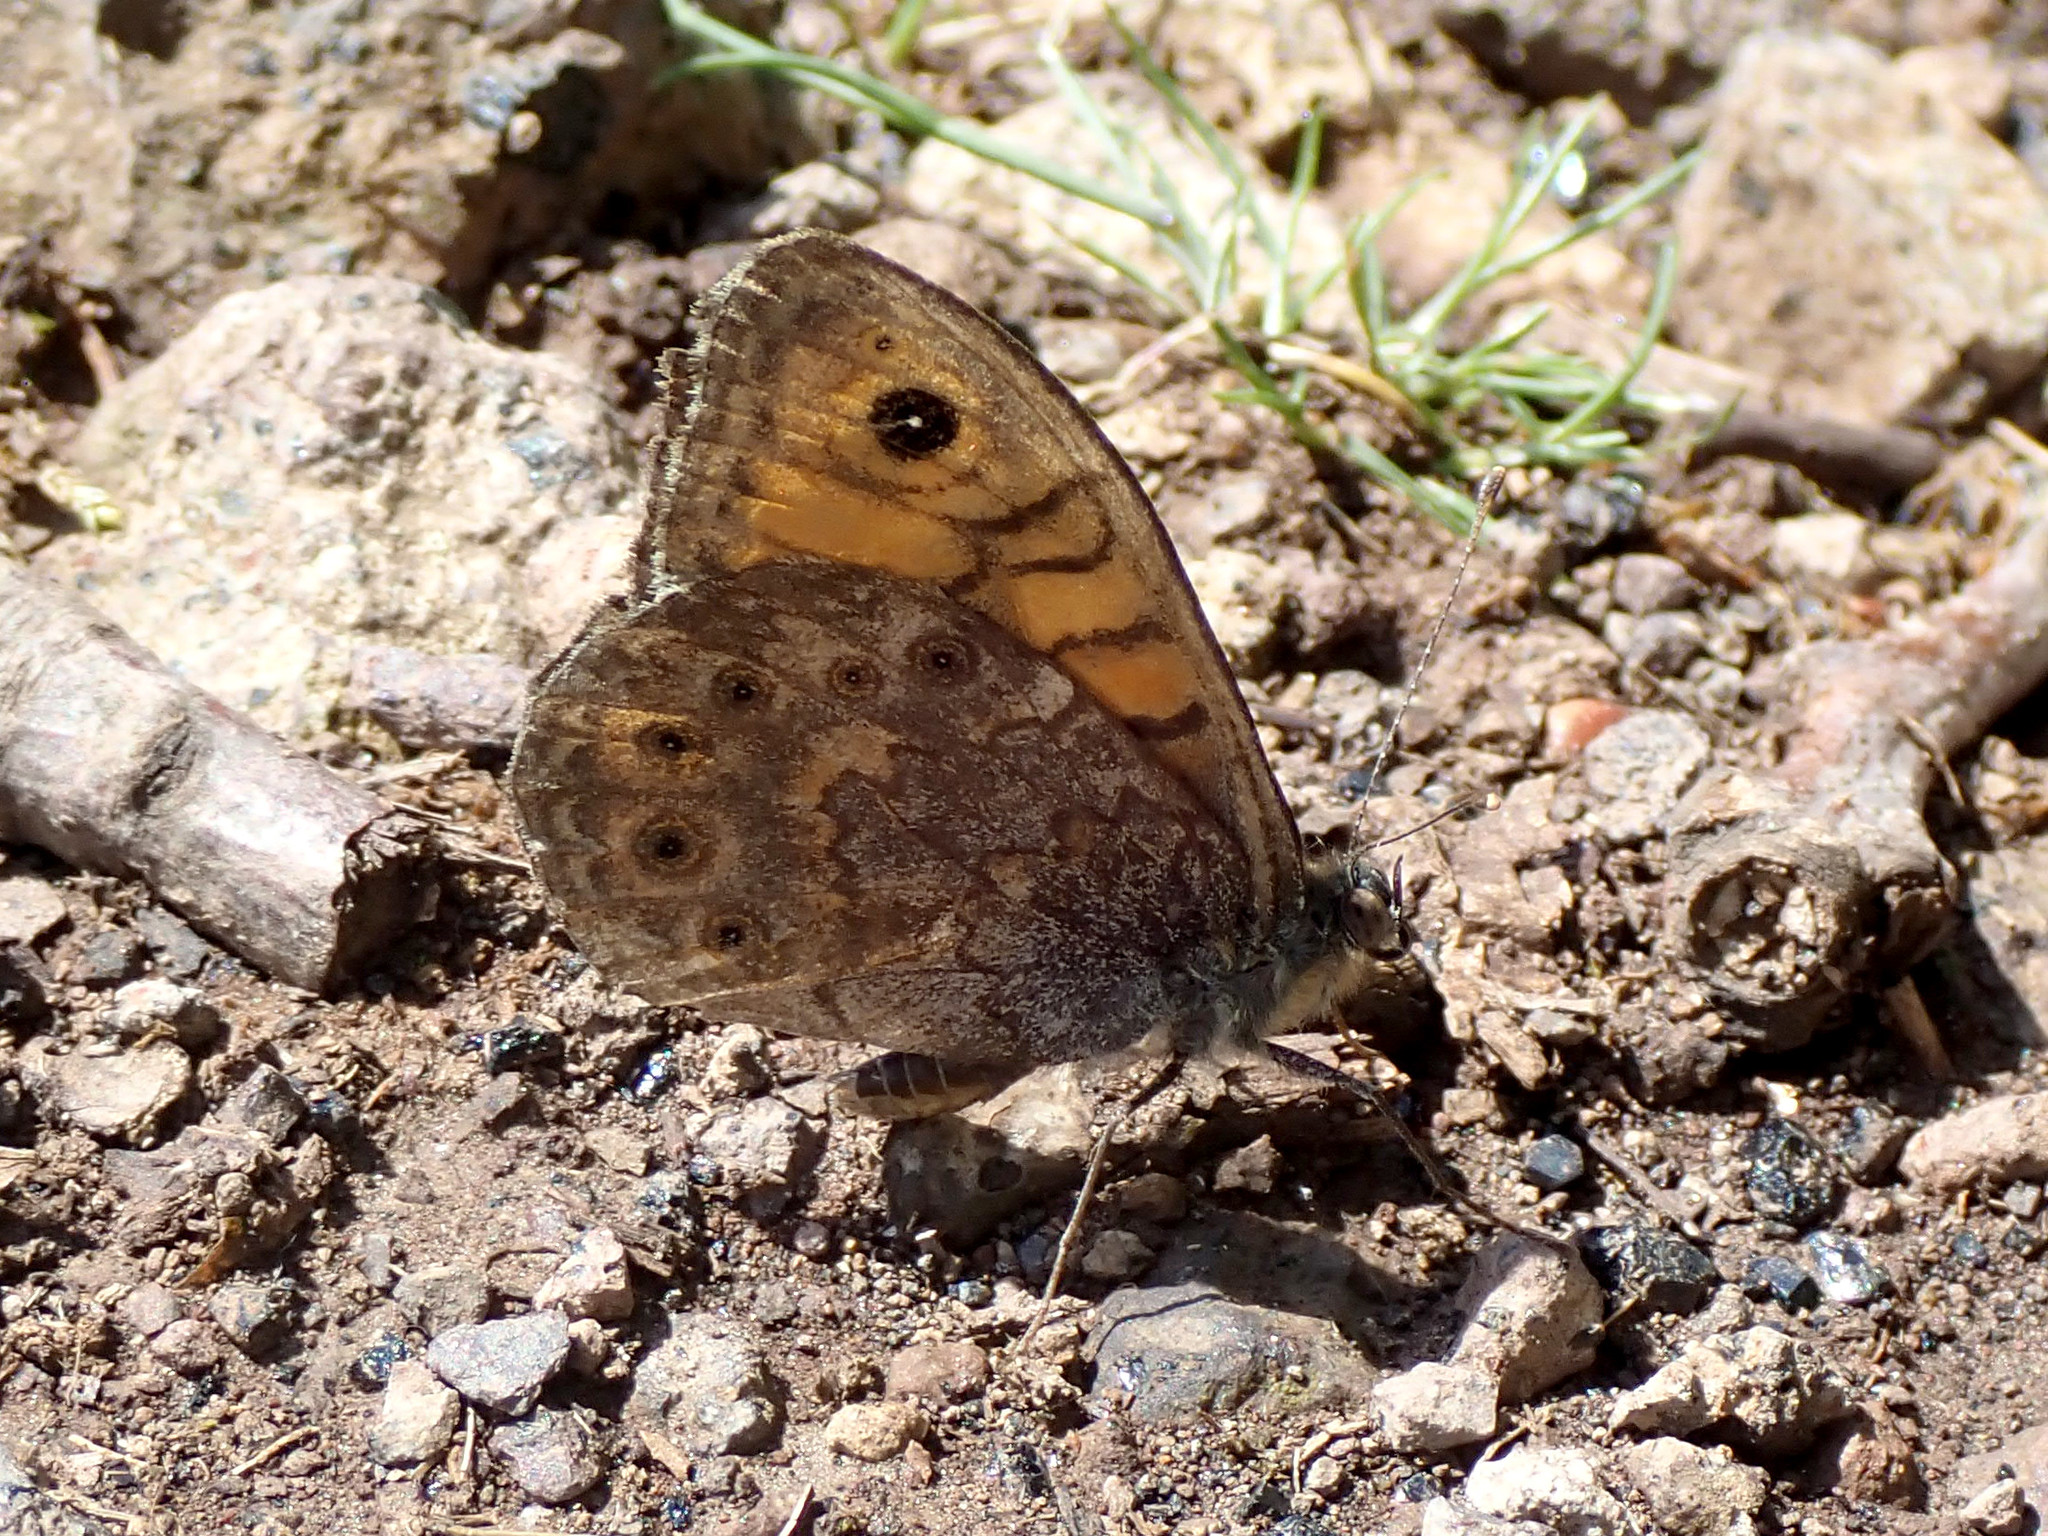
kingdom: Animalia
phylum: Arthropoda
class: Insecta
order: Lepidoptera
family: Nymphalidae
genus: Pararge
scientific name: Pararge Lasiommata megera
